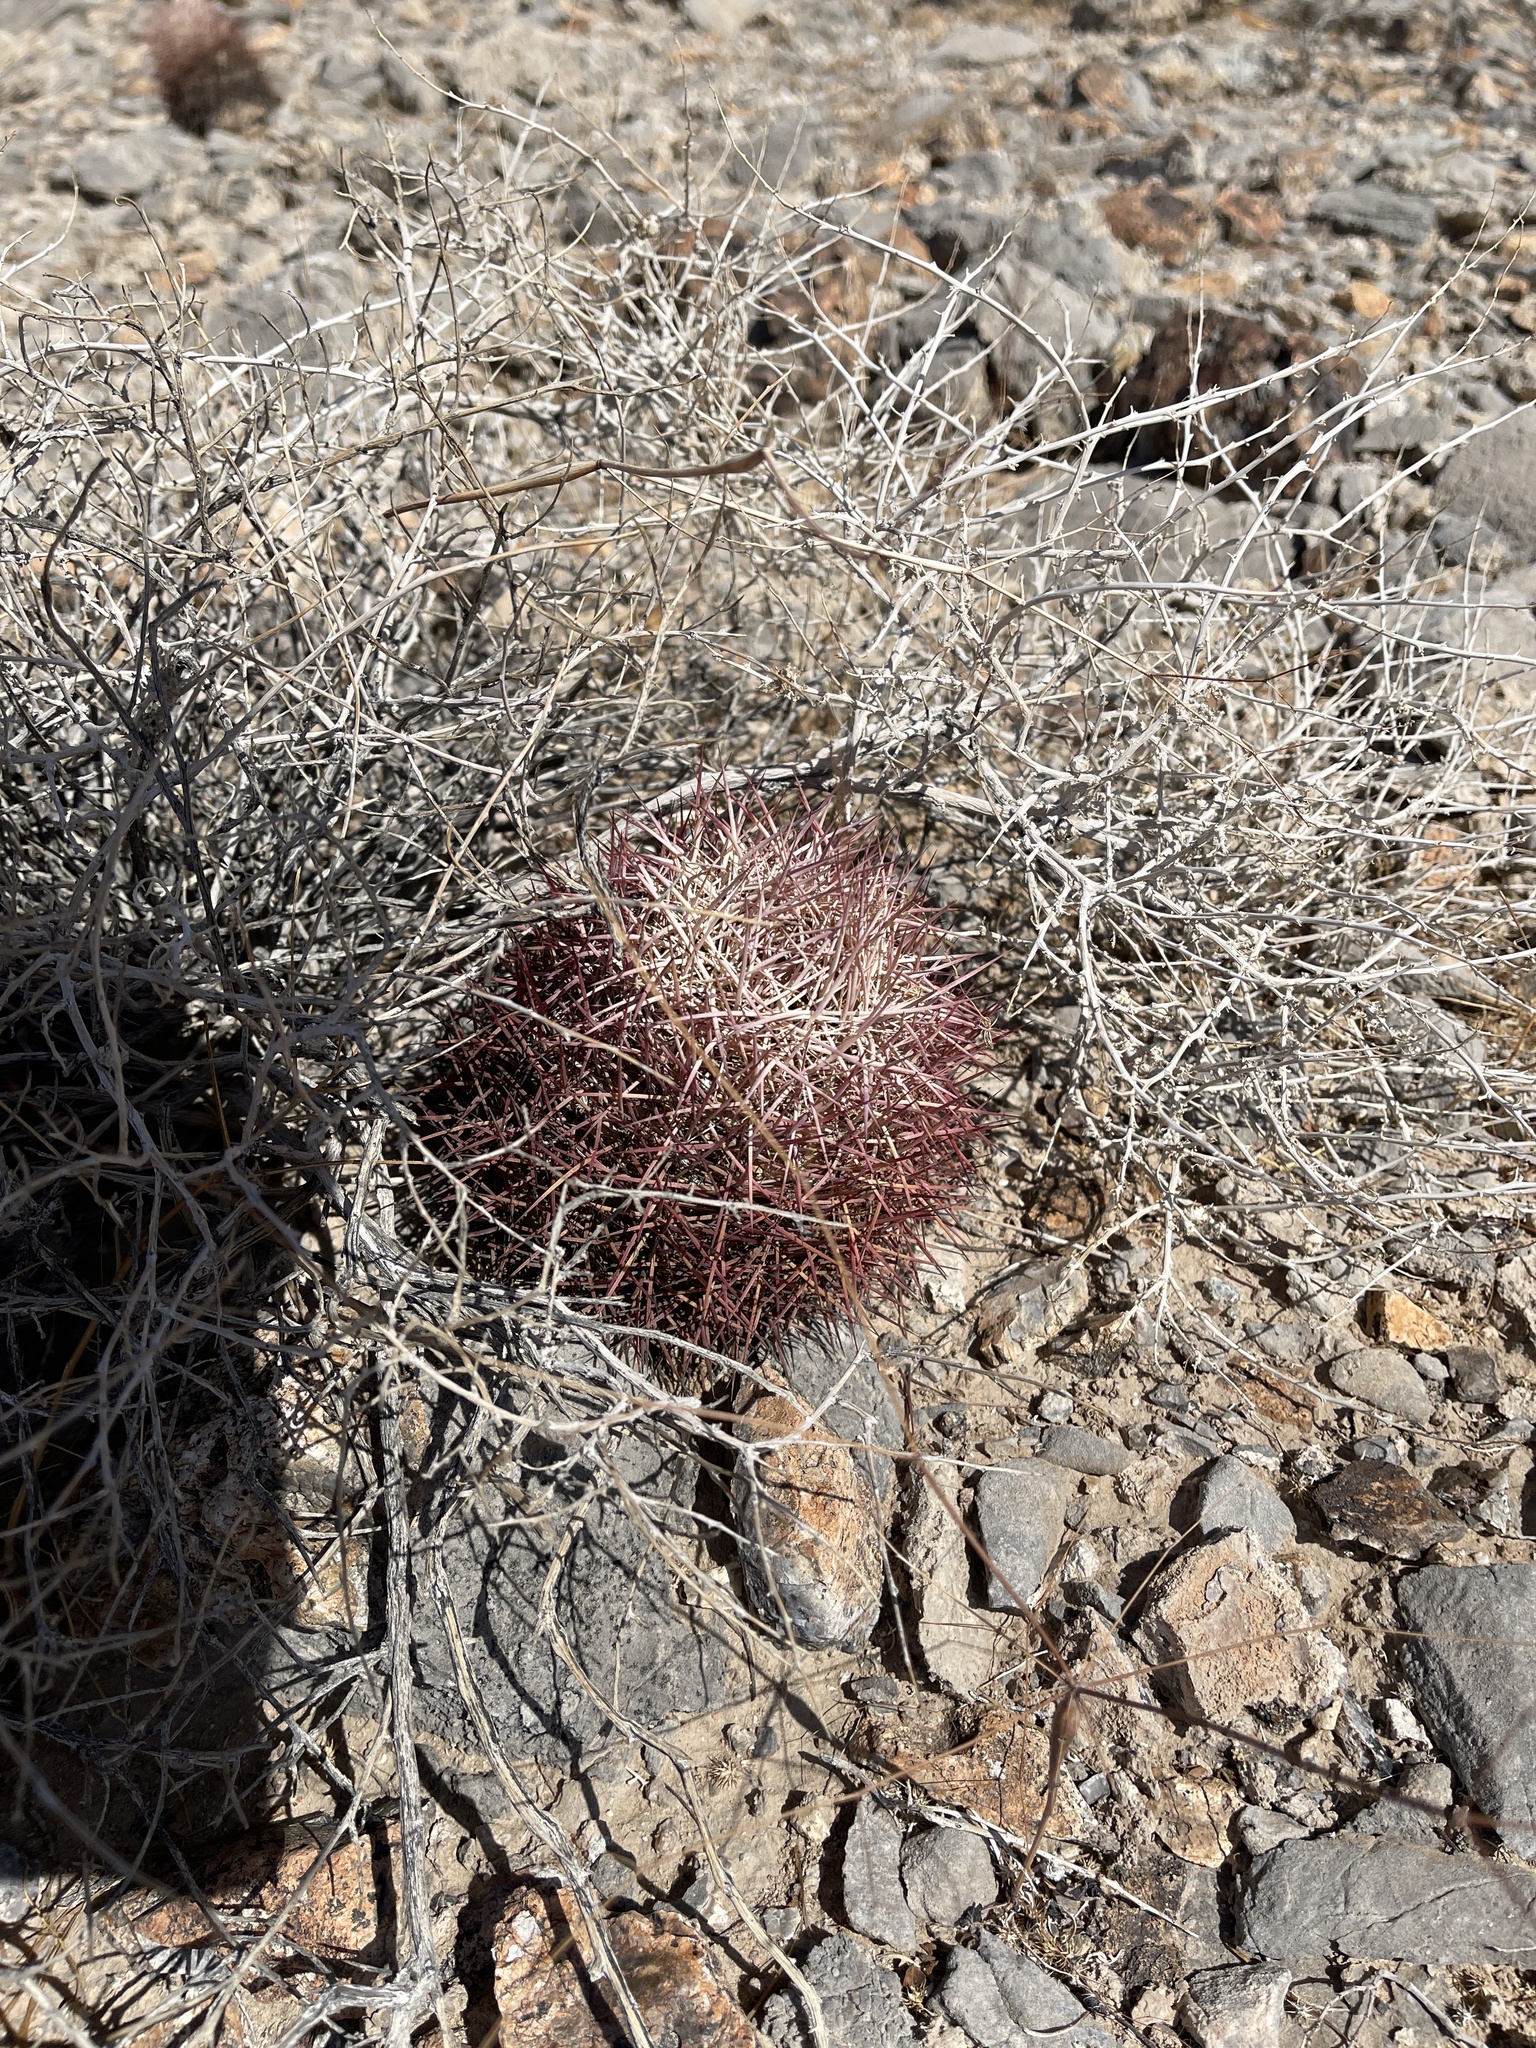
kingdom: Plantae
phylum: Tracheophyta
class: Magnoliopsida
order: Caryophyllales
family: Cactaceae
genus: Sclerocactus
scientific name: Sclerocactus johnsonii
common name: Eight-spine fishhook cactus
